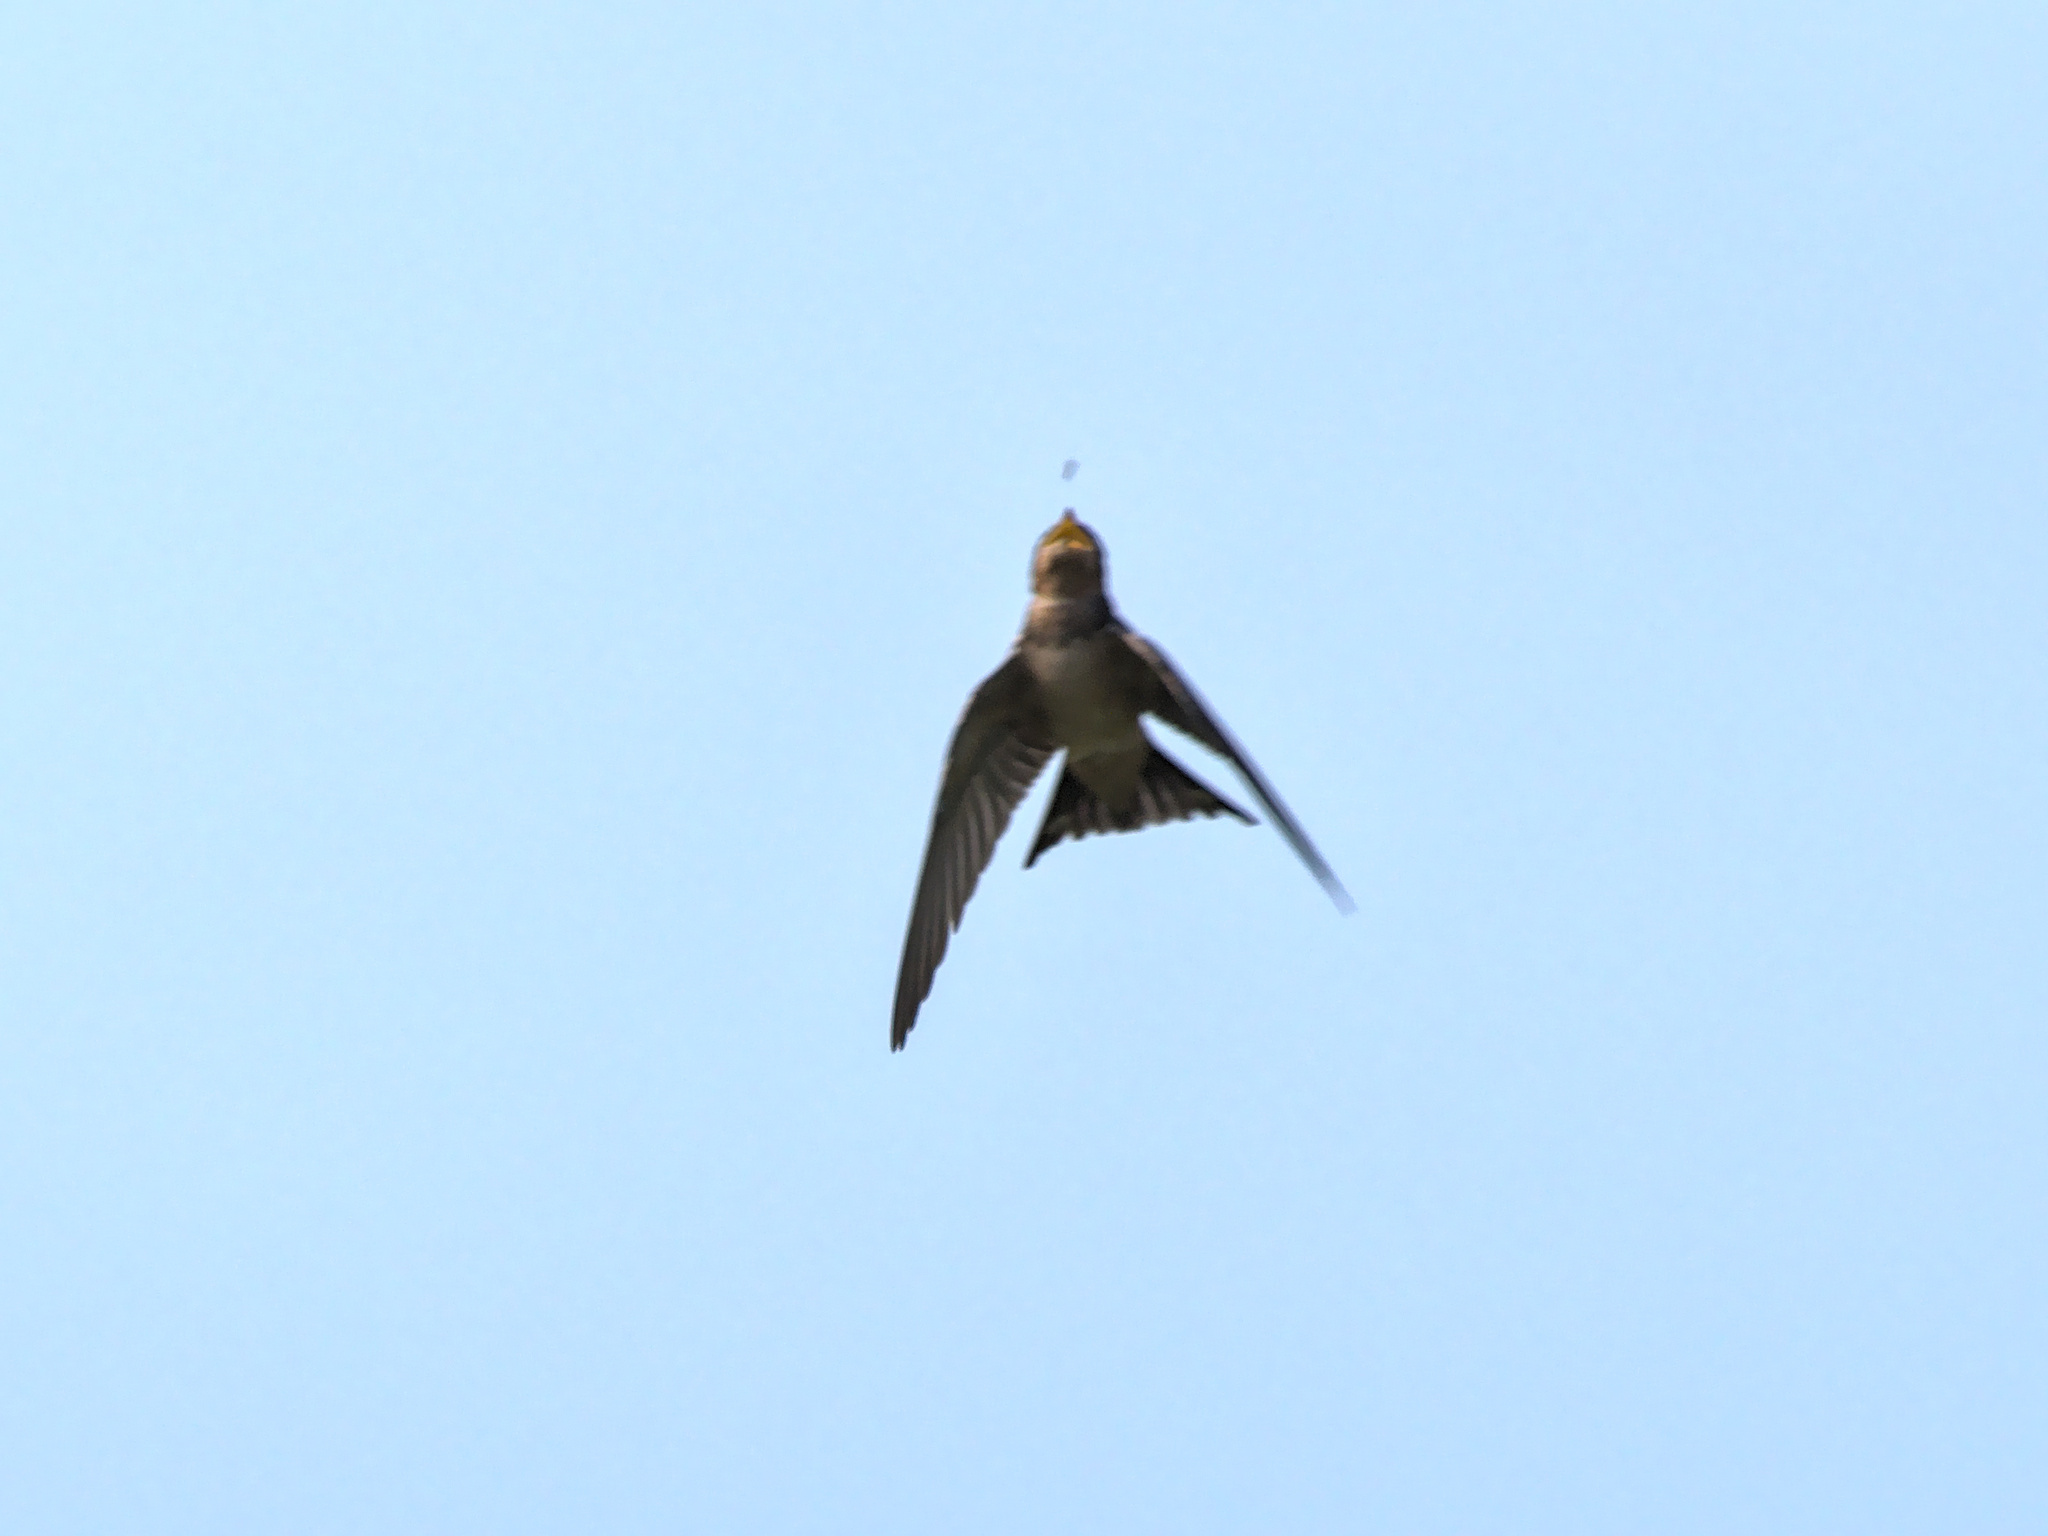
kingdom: Animalia
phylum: Chordata
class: Aves
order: Passeriformes
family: Hirundinidae
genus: Hirundo
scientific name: Hirundo rustica
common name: Barn swallow
